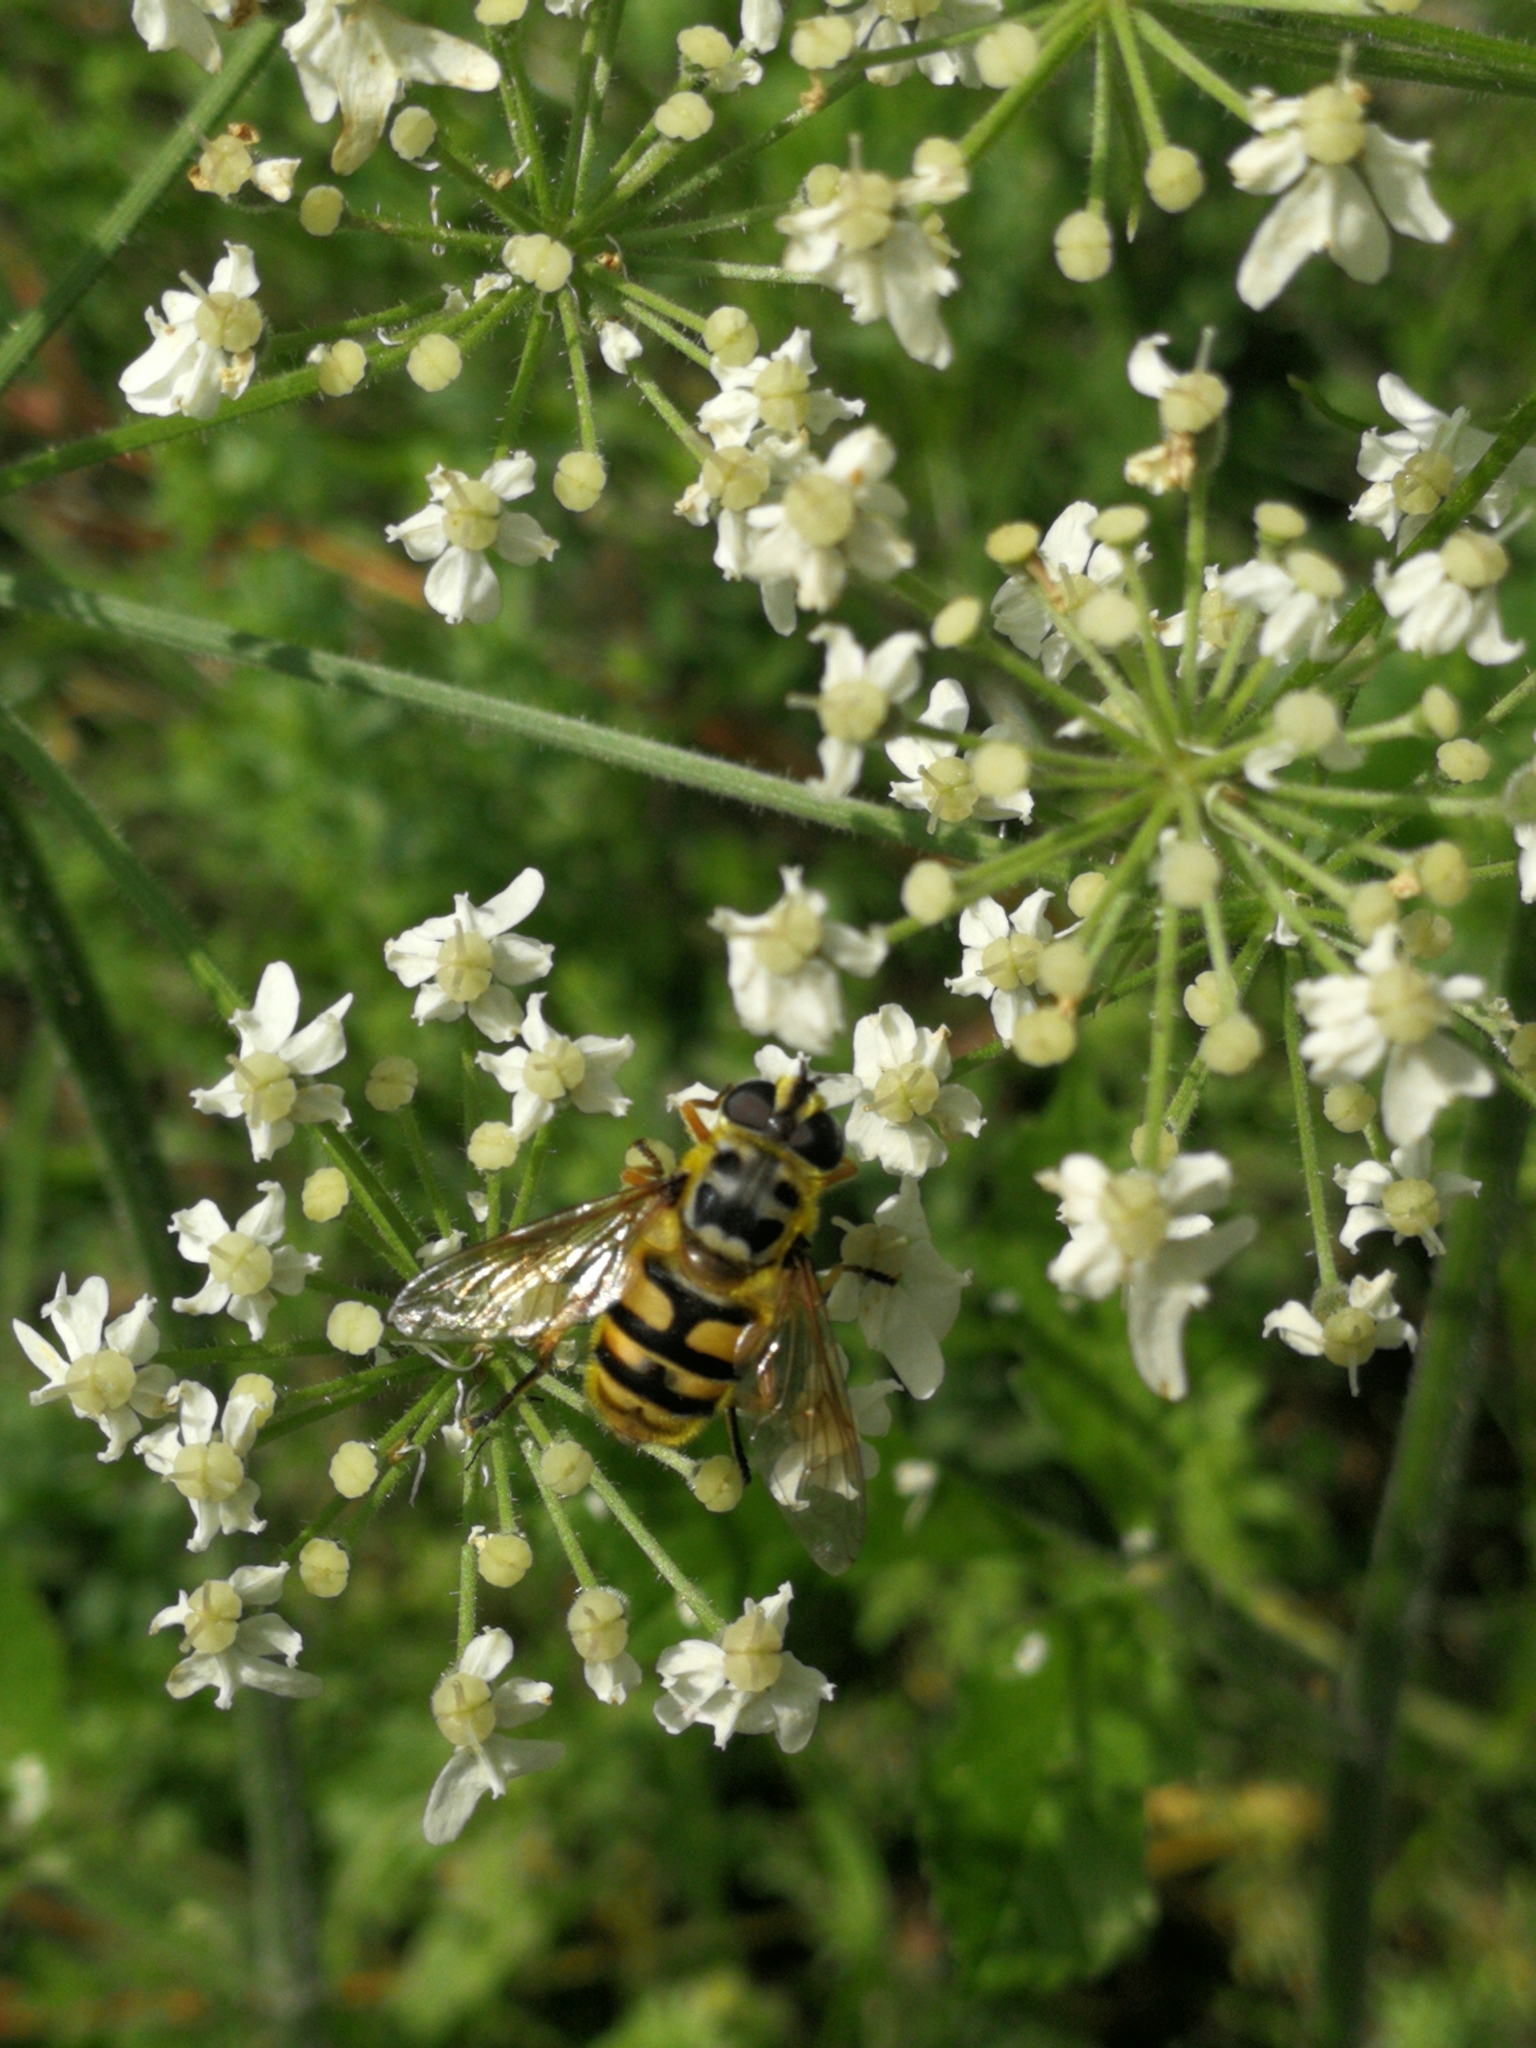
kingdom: Animalia
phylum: Arthropoda
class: Insecta
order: Diptera
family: Syrphidae
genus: Myathropa
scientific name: Myathropa florea
